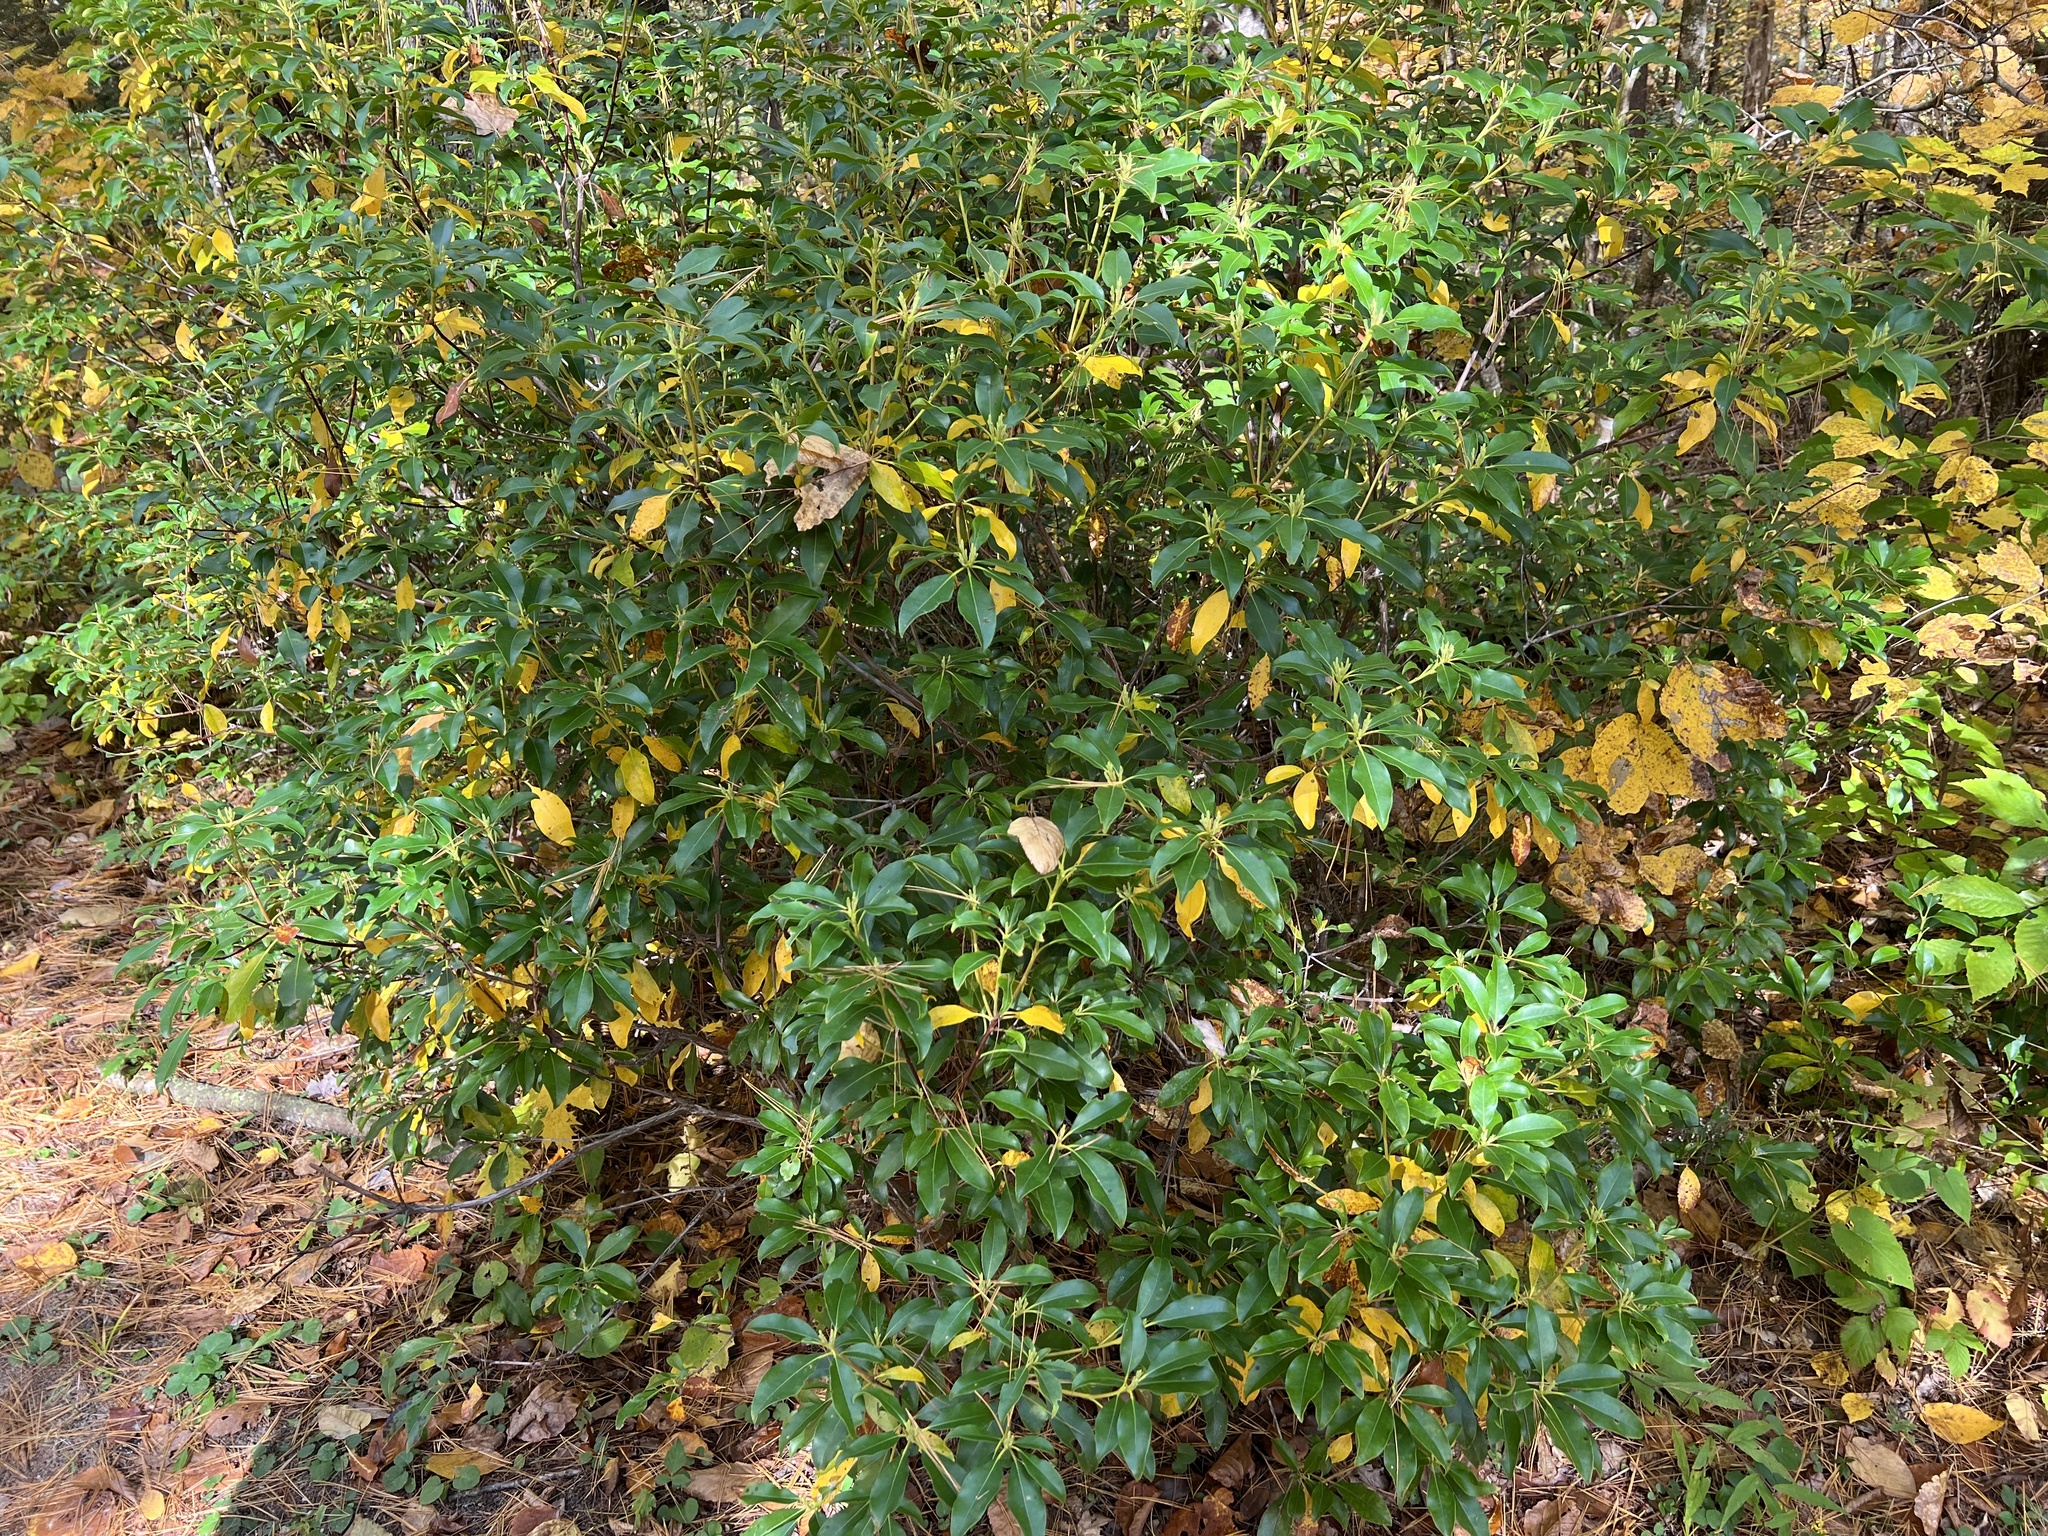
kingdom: Plantae
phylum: Tracheophyta
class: Magnoliopsida
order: Ericales
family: Ericaceae
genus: Kalmia
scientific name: Kalmia latifolia
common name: Mountain-laurel
